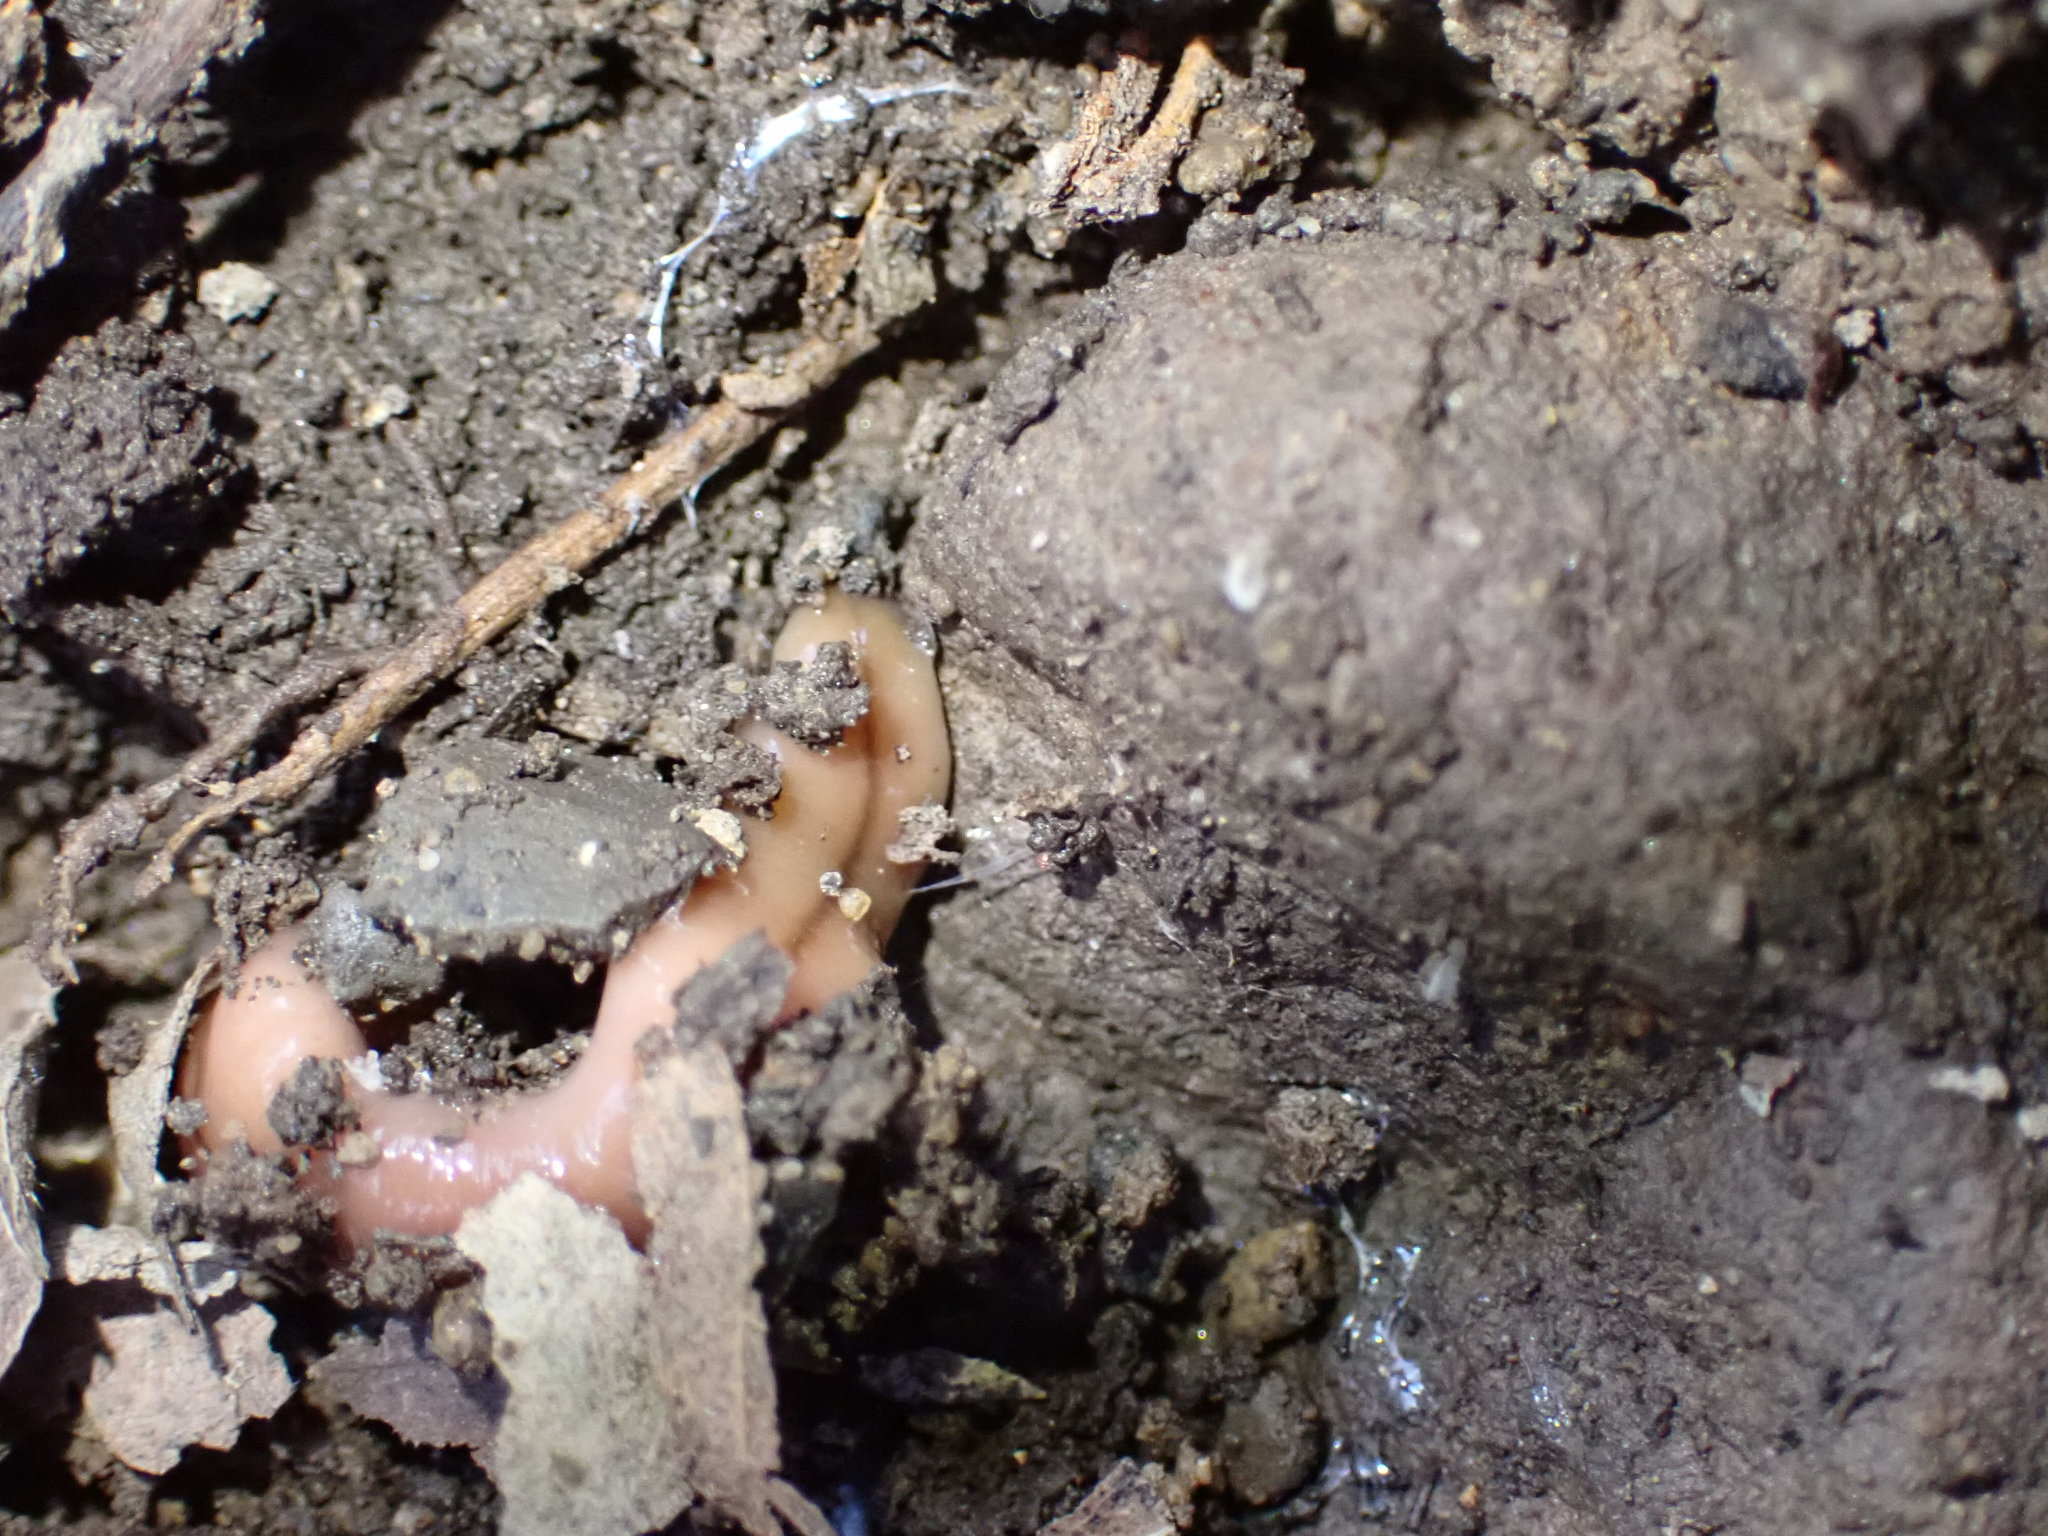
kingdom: Animalia
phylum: Platyhelminthes
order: Tricladida
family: Geoplanidae
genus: Bipalium
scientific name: Bipalium adventitium
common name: Land planarian
